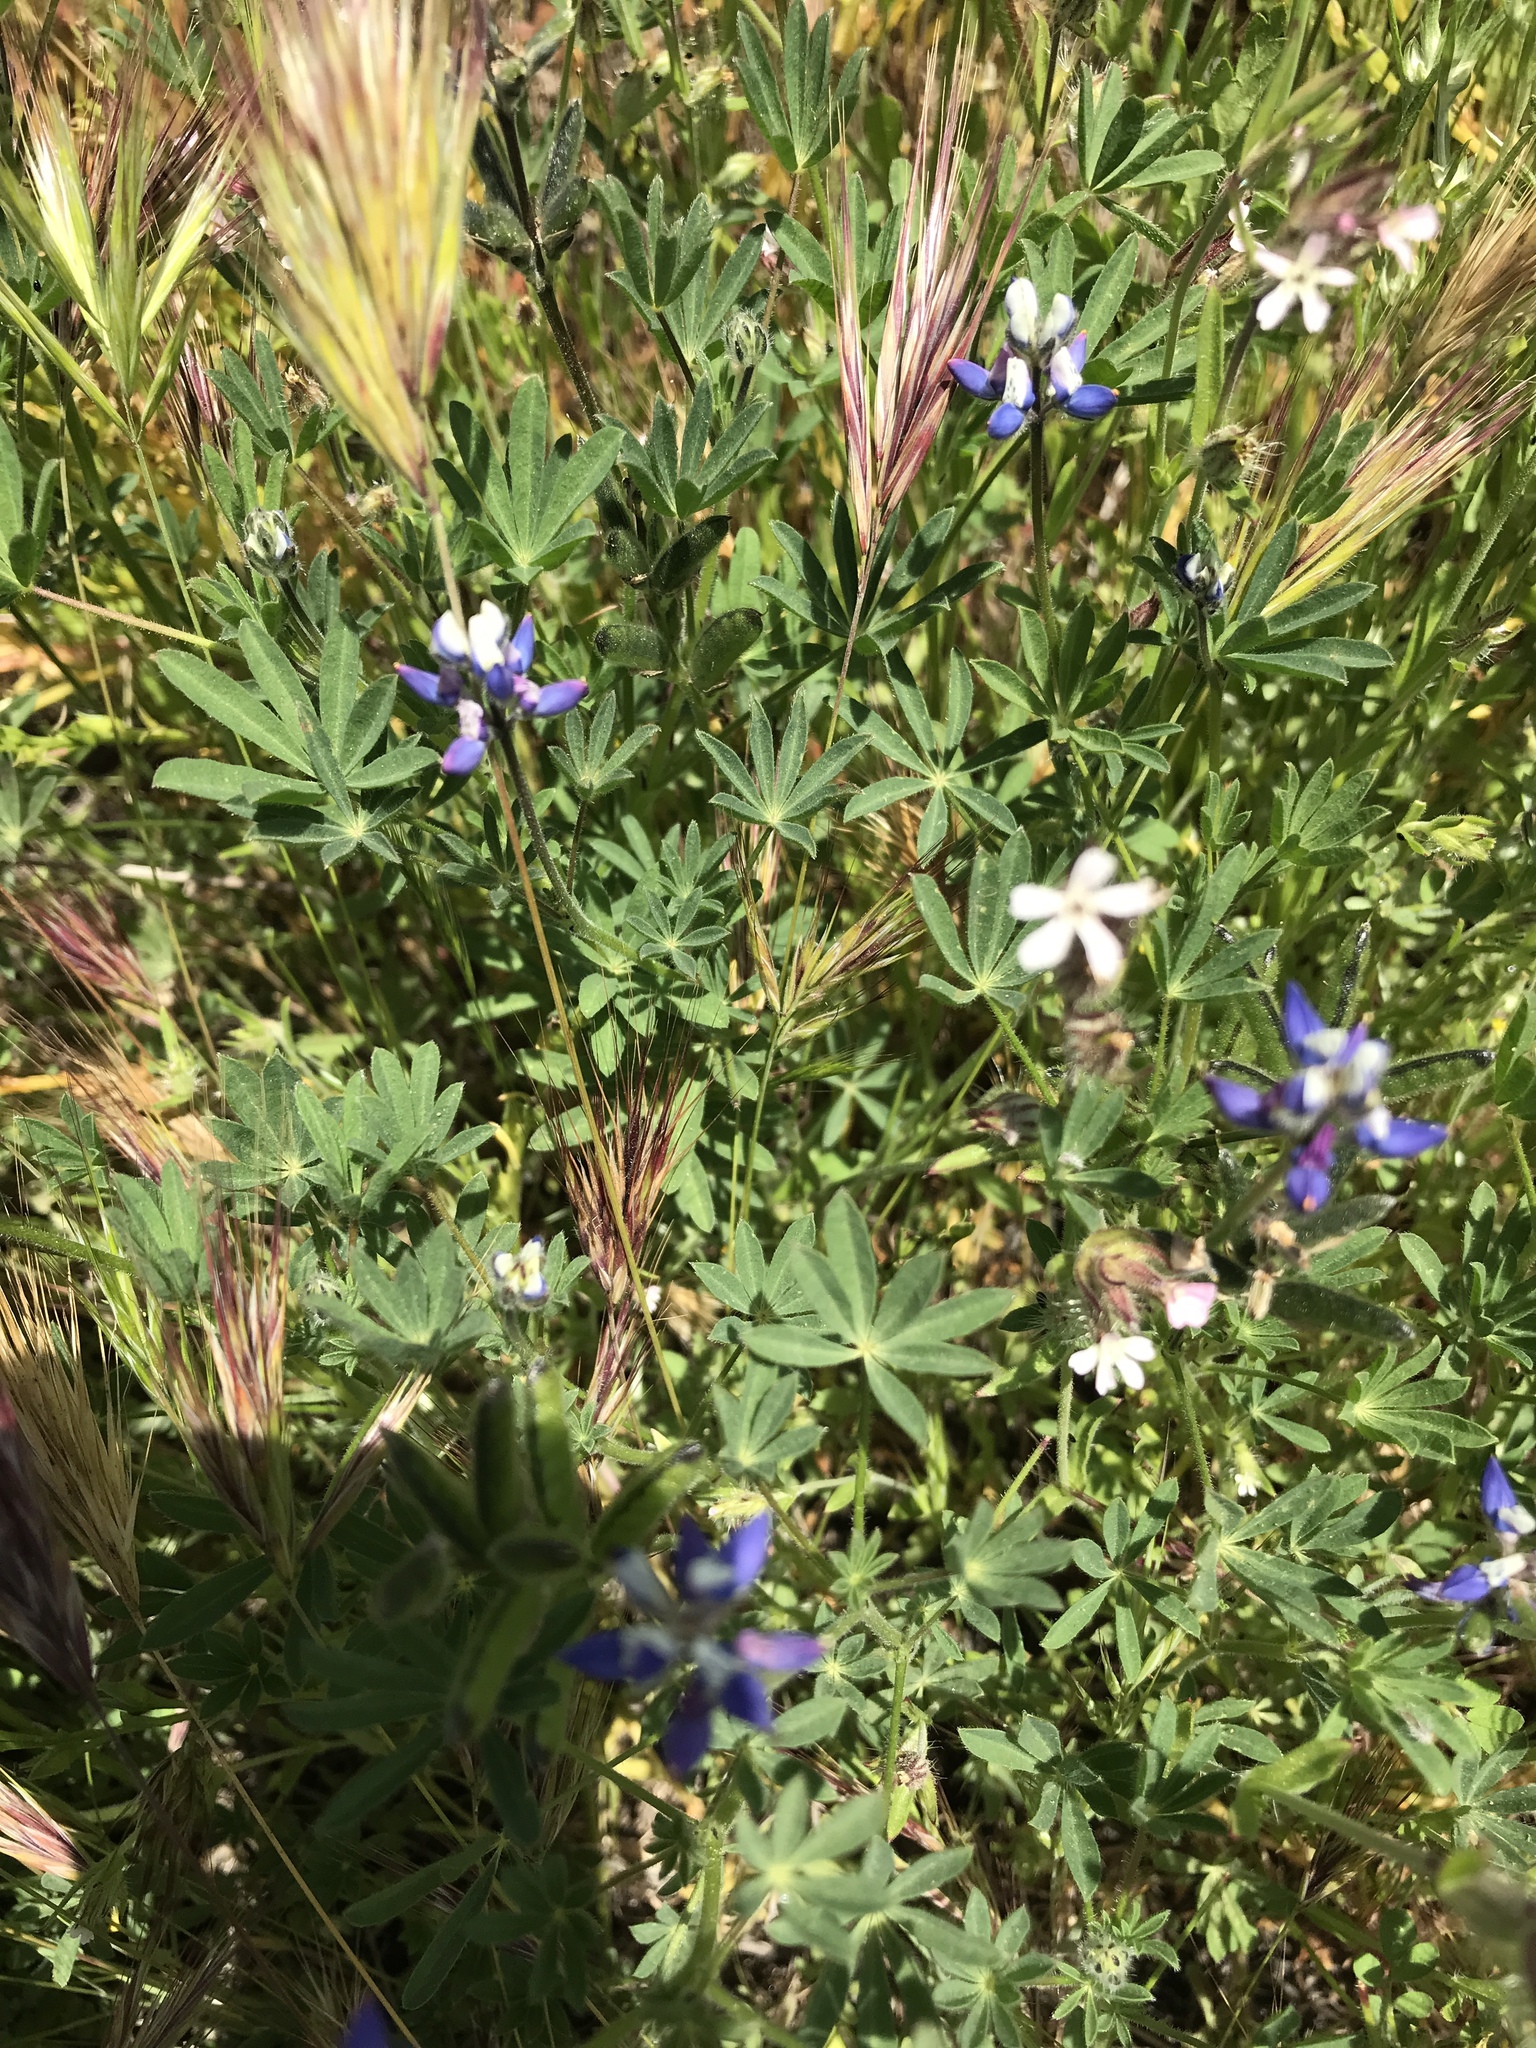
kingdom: Plantae
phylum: Tracheophyta
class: Magnoliopsida
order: Fabales
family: Fabaceae
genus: Lupinus
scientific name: Lupinus bicolor
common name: Miniature lupine
